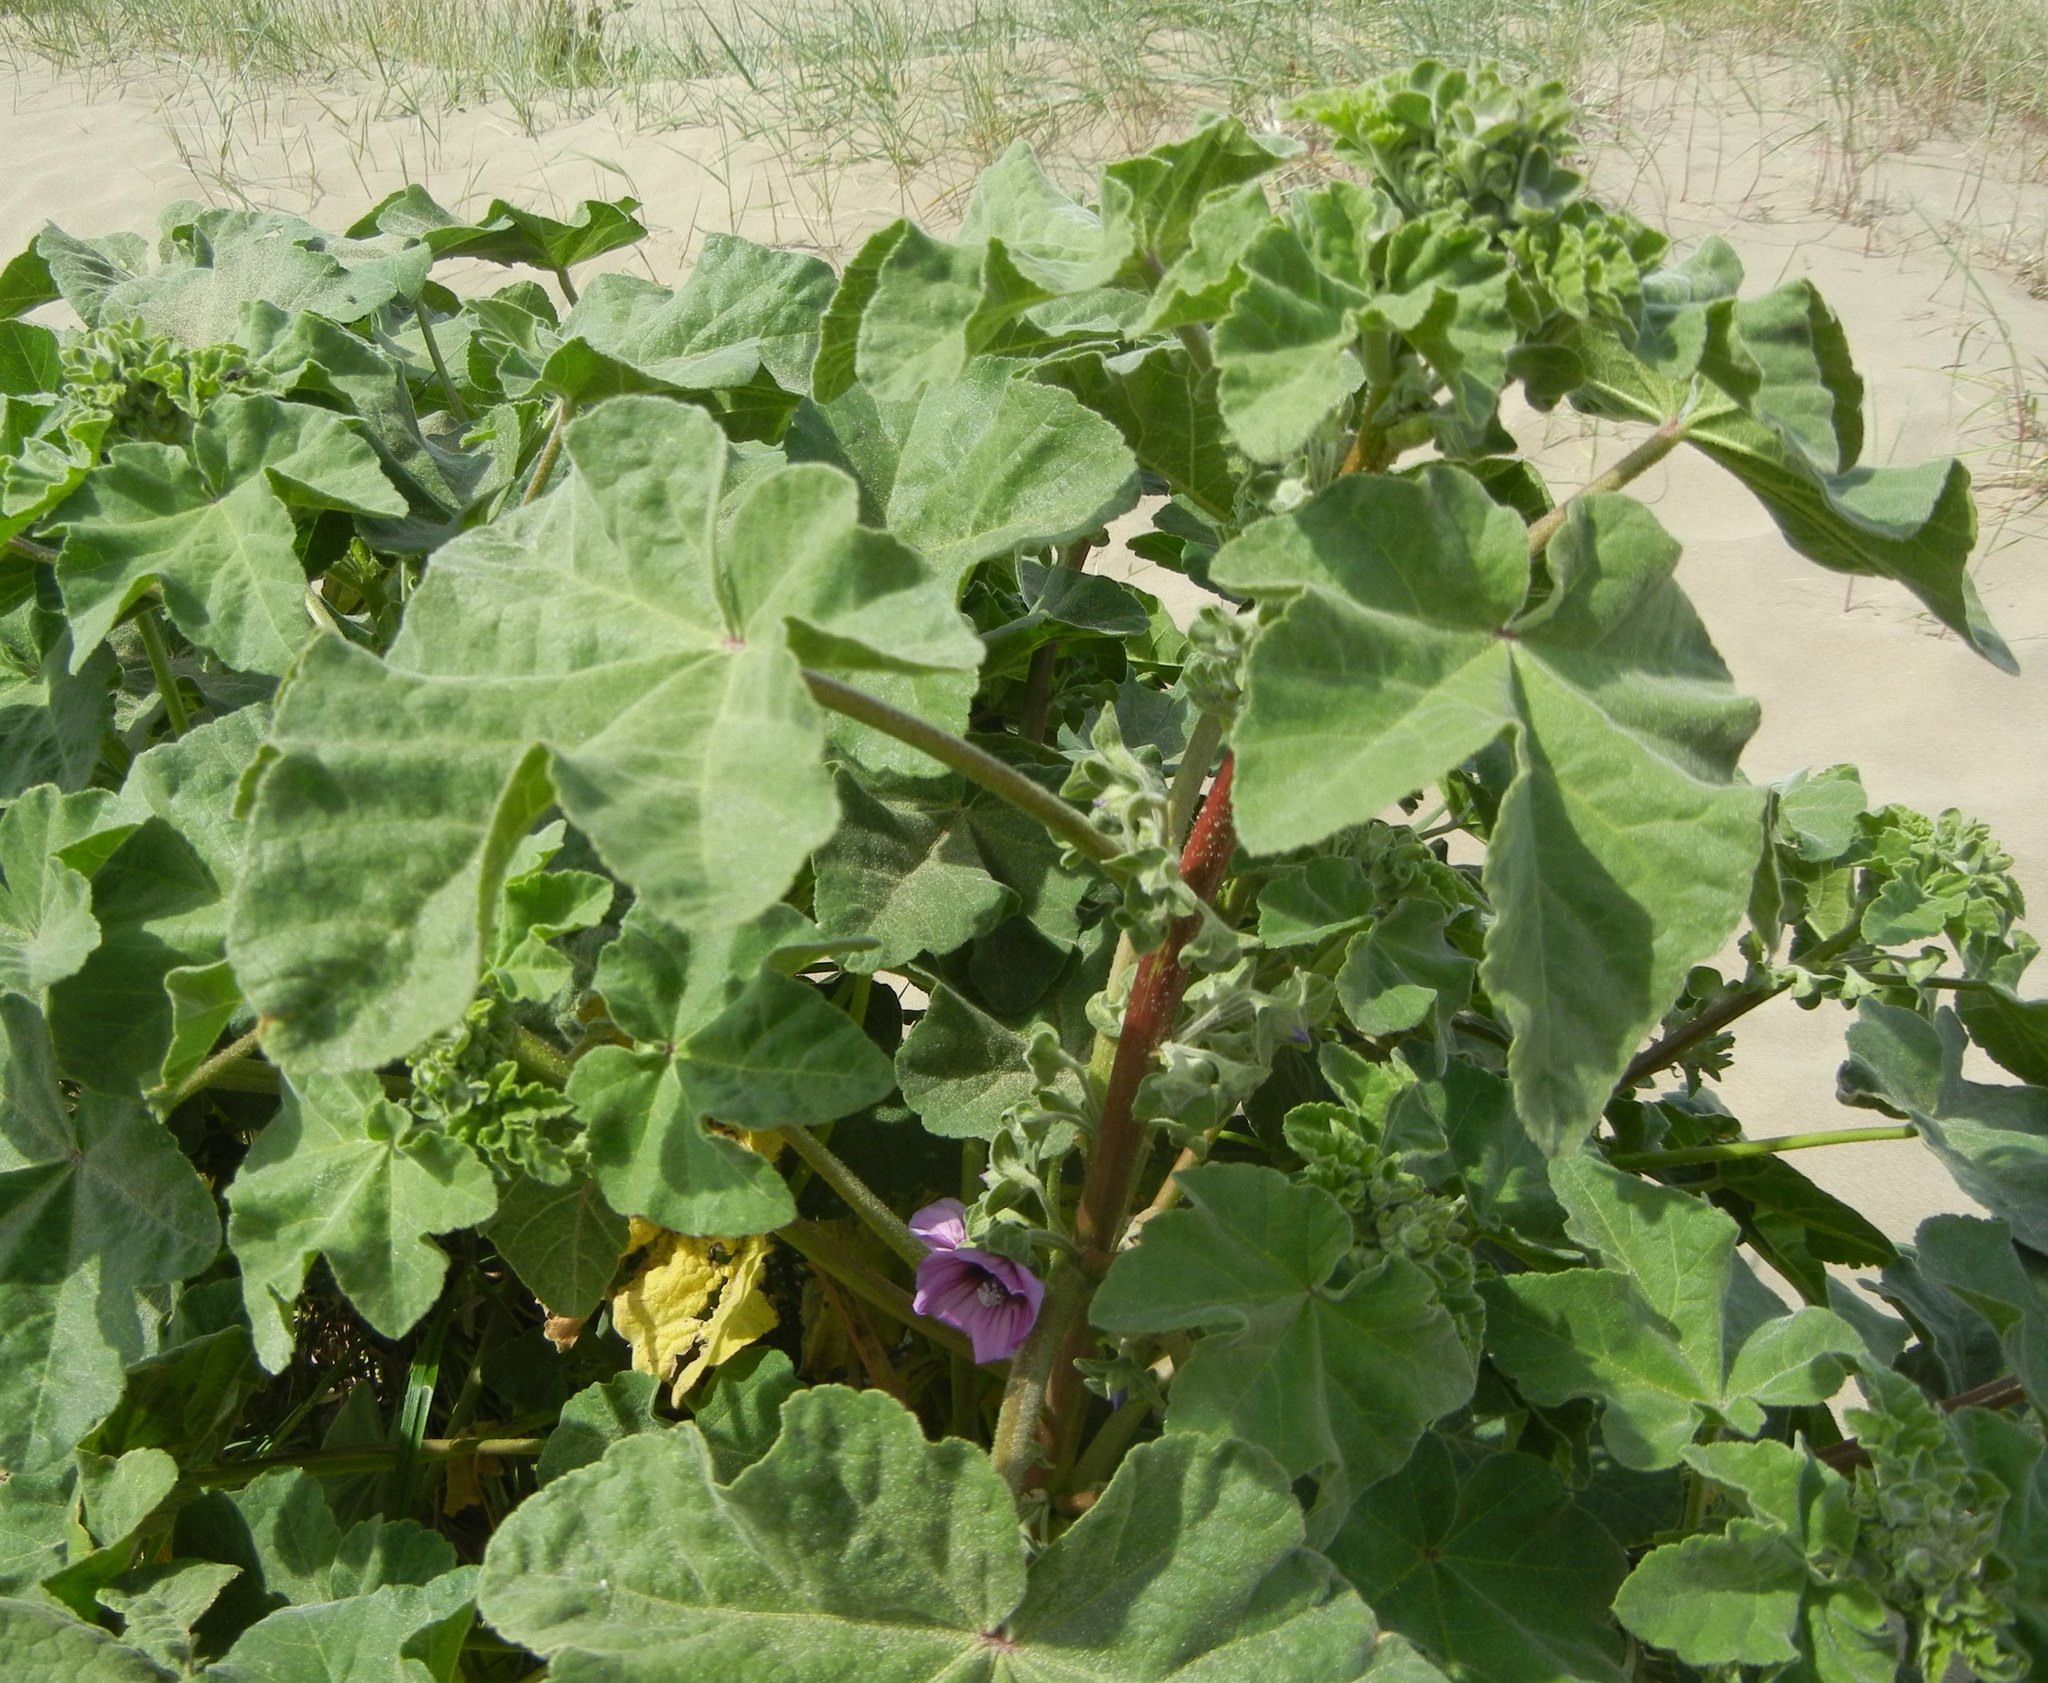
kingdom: Plantae
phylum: Tracheophyta
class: Magnoliopsida
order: Malvales
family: Malvaceae
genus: Malva
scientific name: Malva arborea
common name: Tree mallow
